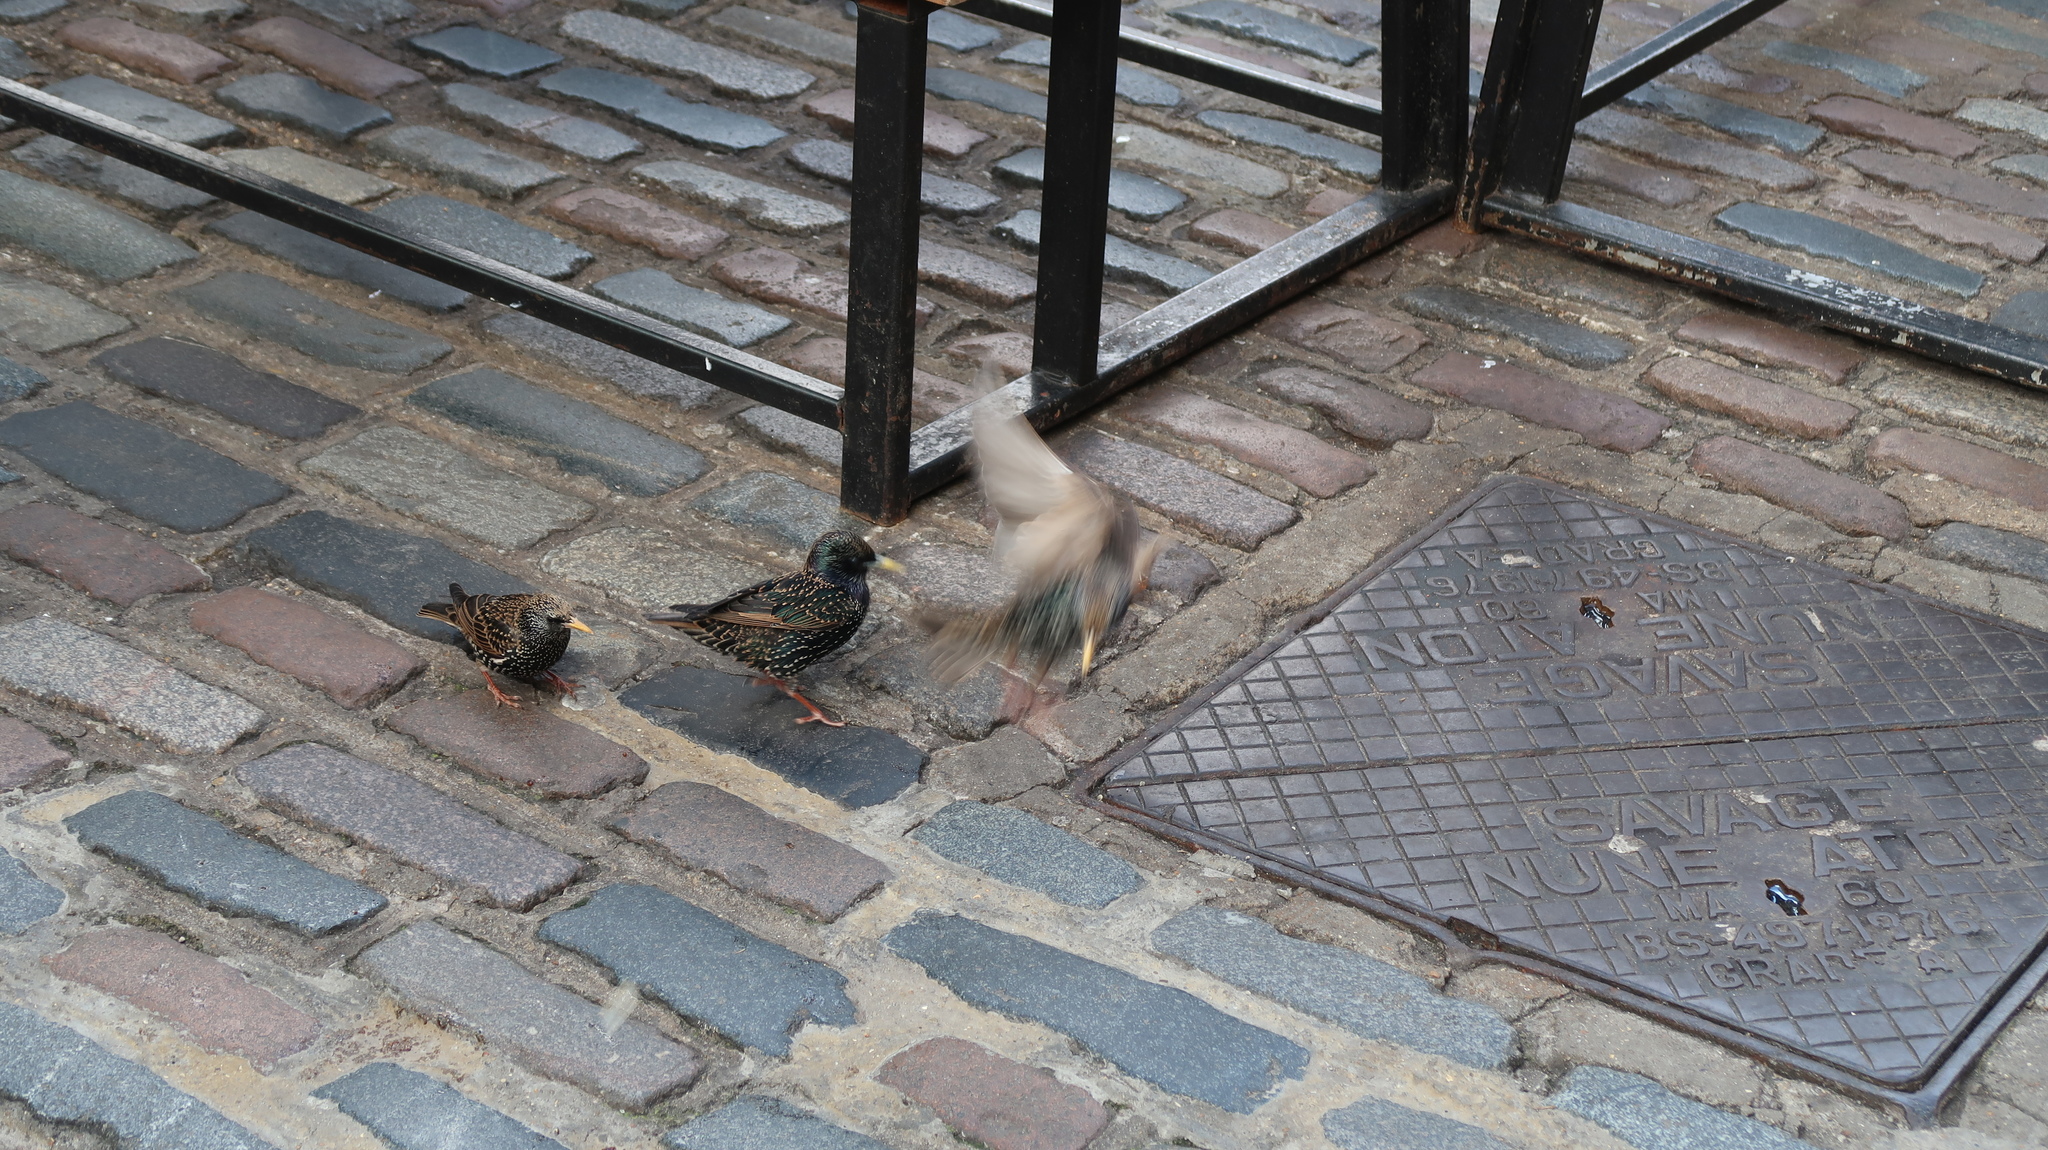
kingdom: Animalia
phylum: Chordata
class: Aves
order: Passeriformes
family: Sturnidae
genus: Sturnus
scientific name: Sturnus vulgaris
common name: Common starling
